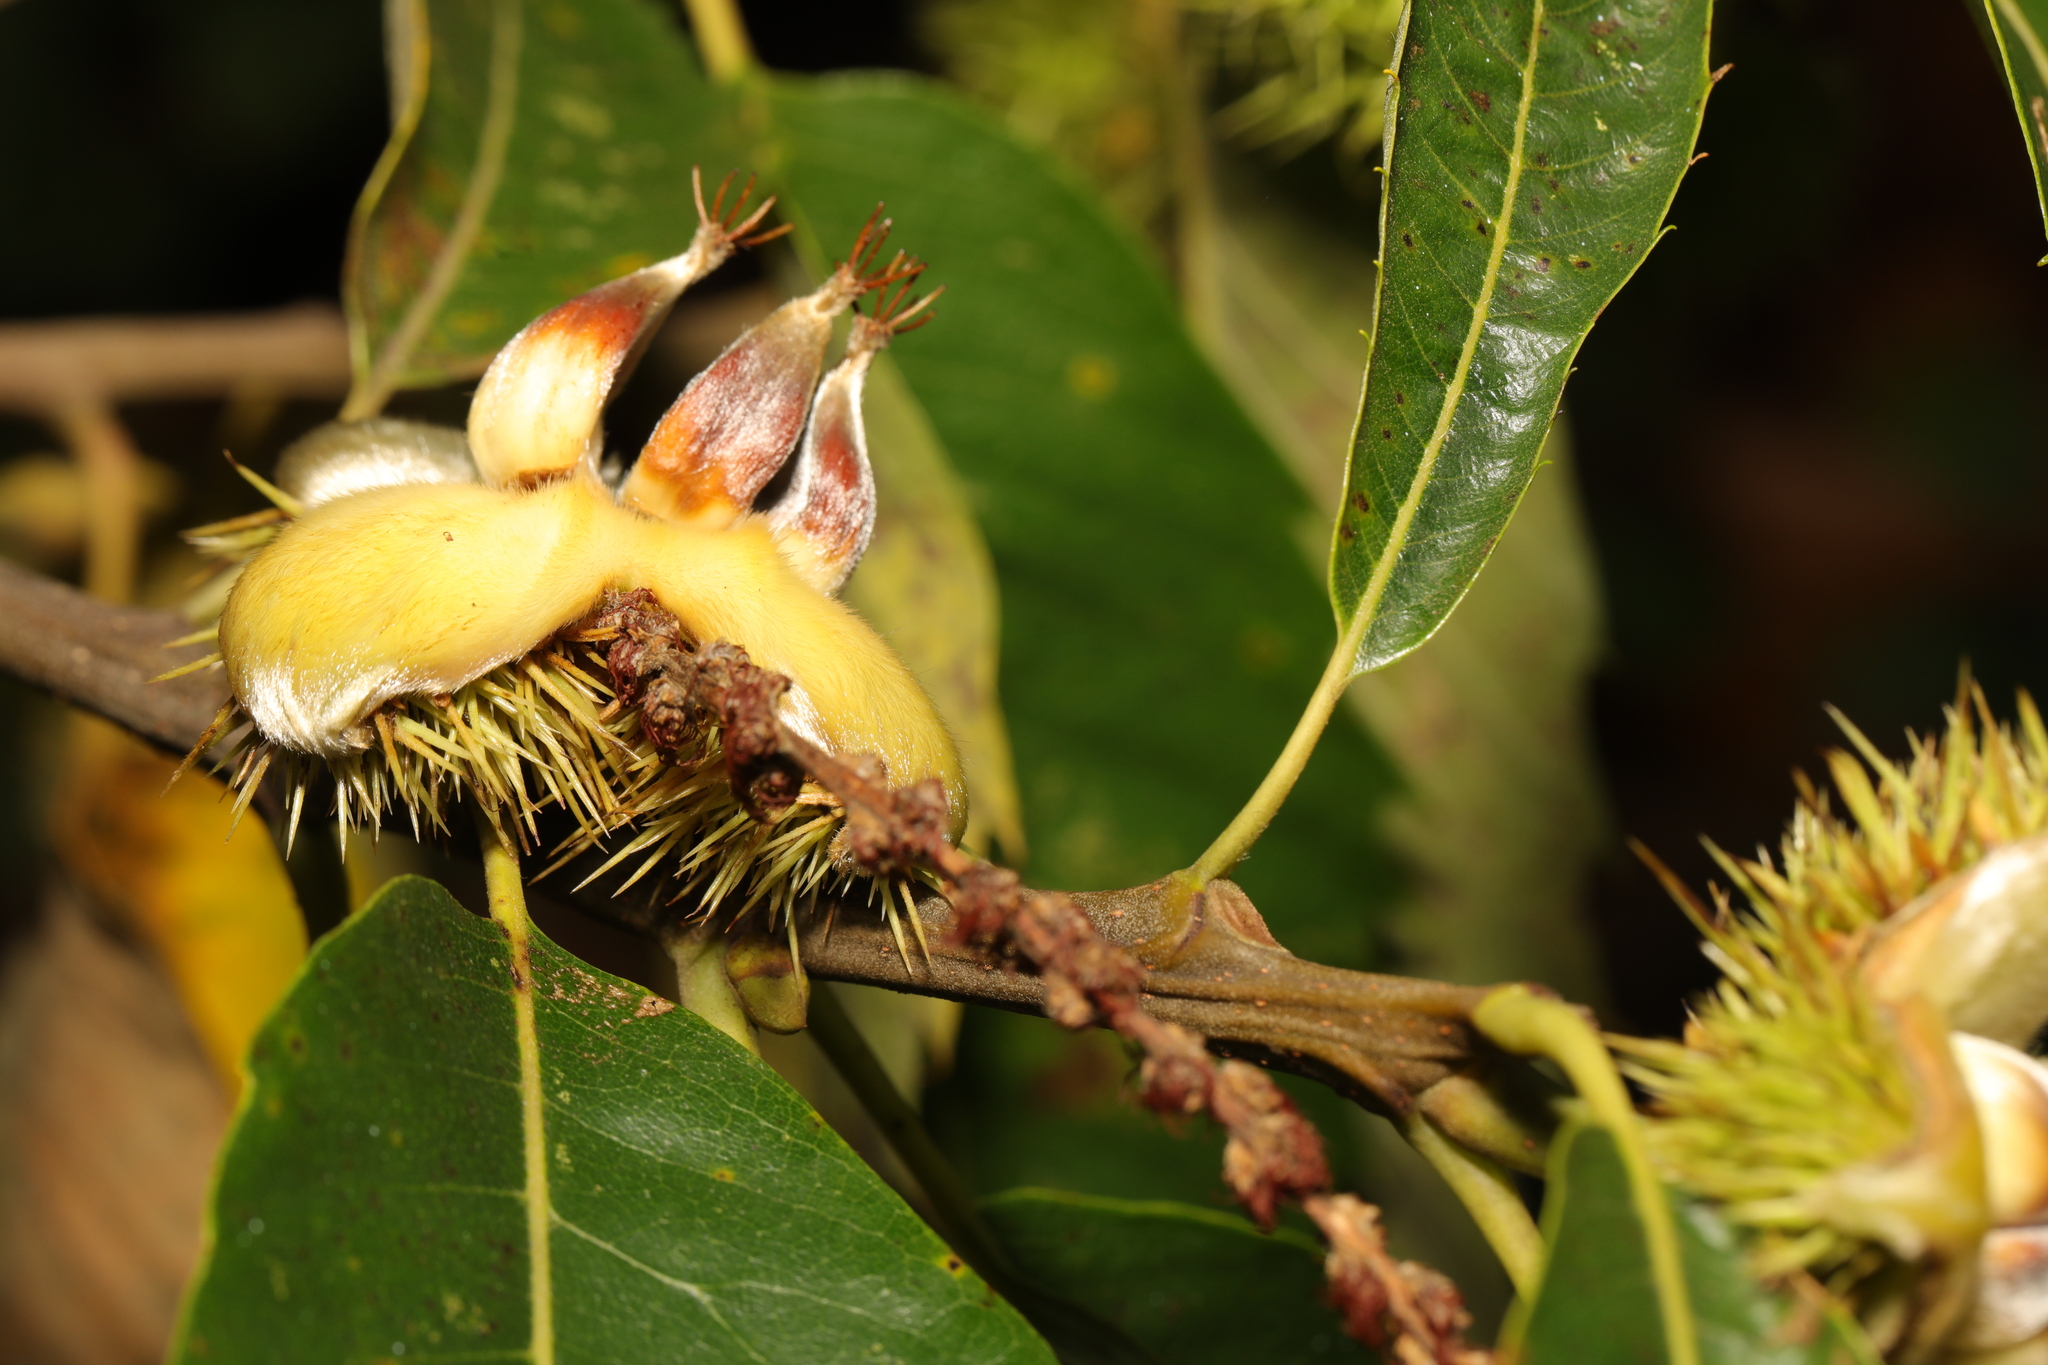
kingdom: Plantae
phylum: Tracheophyta
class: Magnoliopsida
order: Fagales
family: Fagaceae
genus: Castanea
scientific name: Castanea sativa
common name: Sweet chestnut
